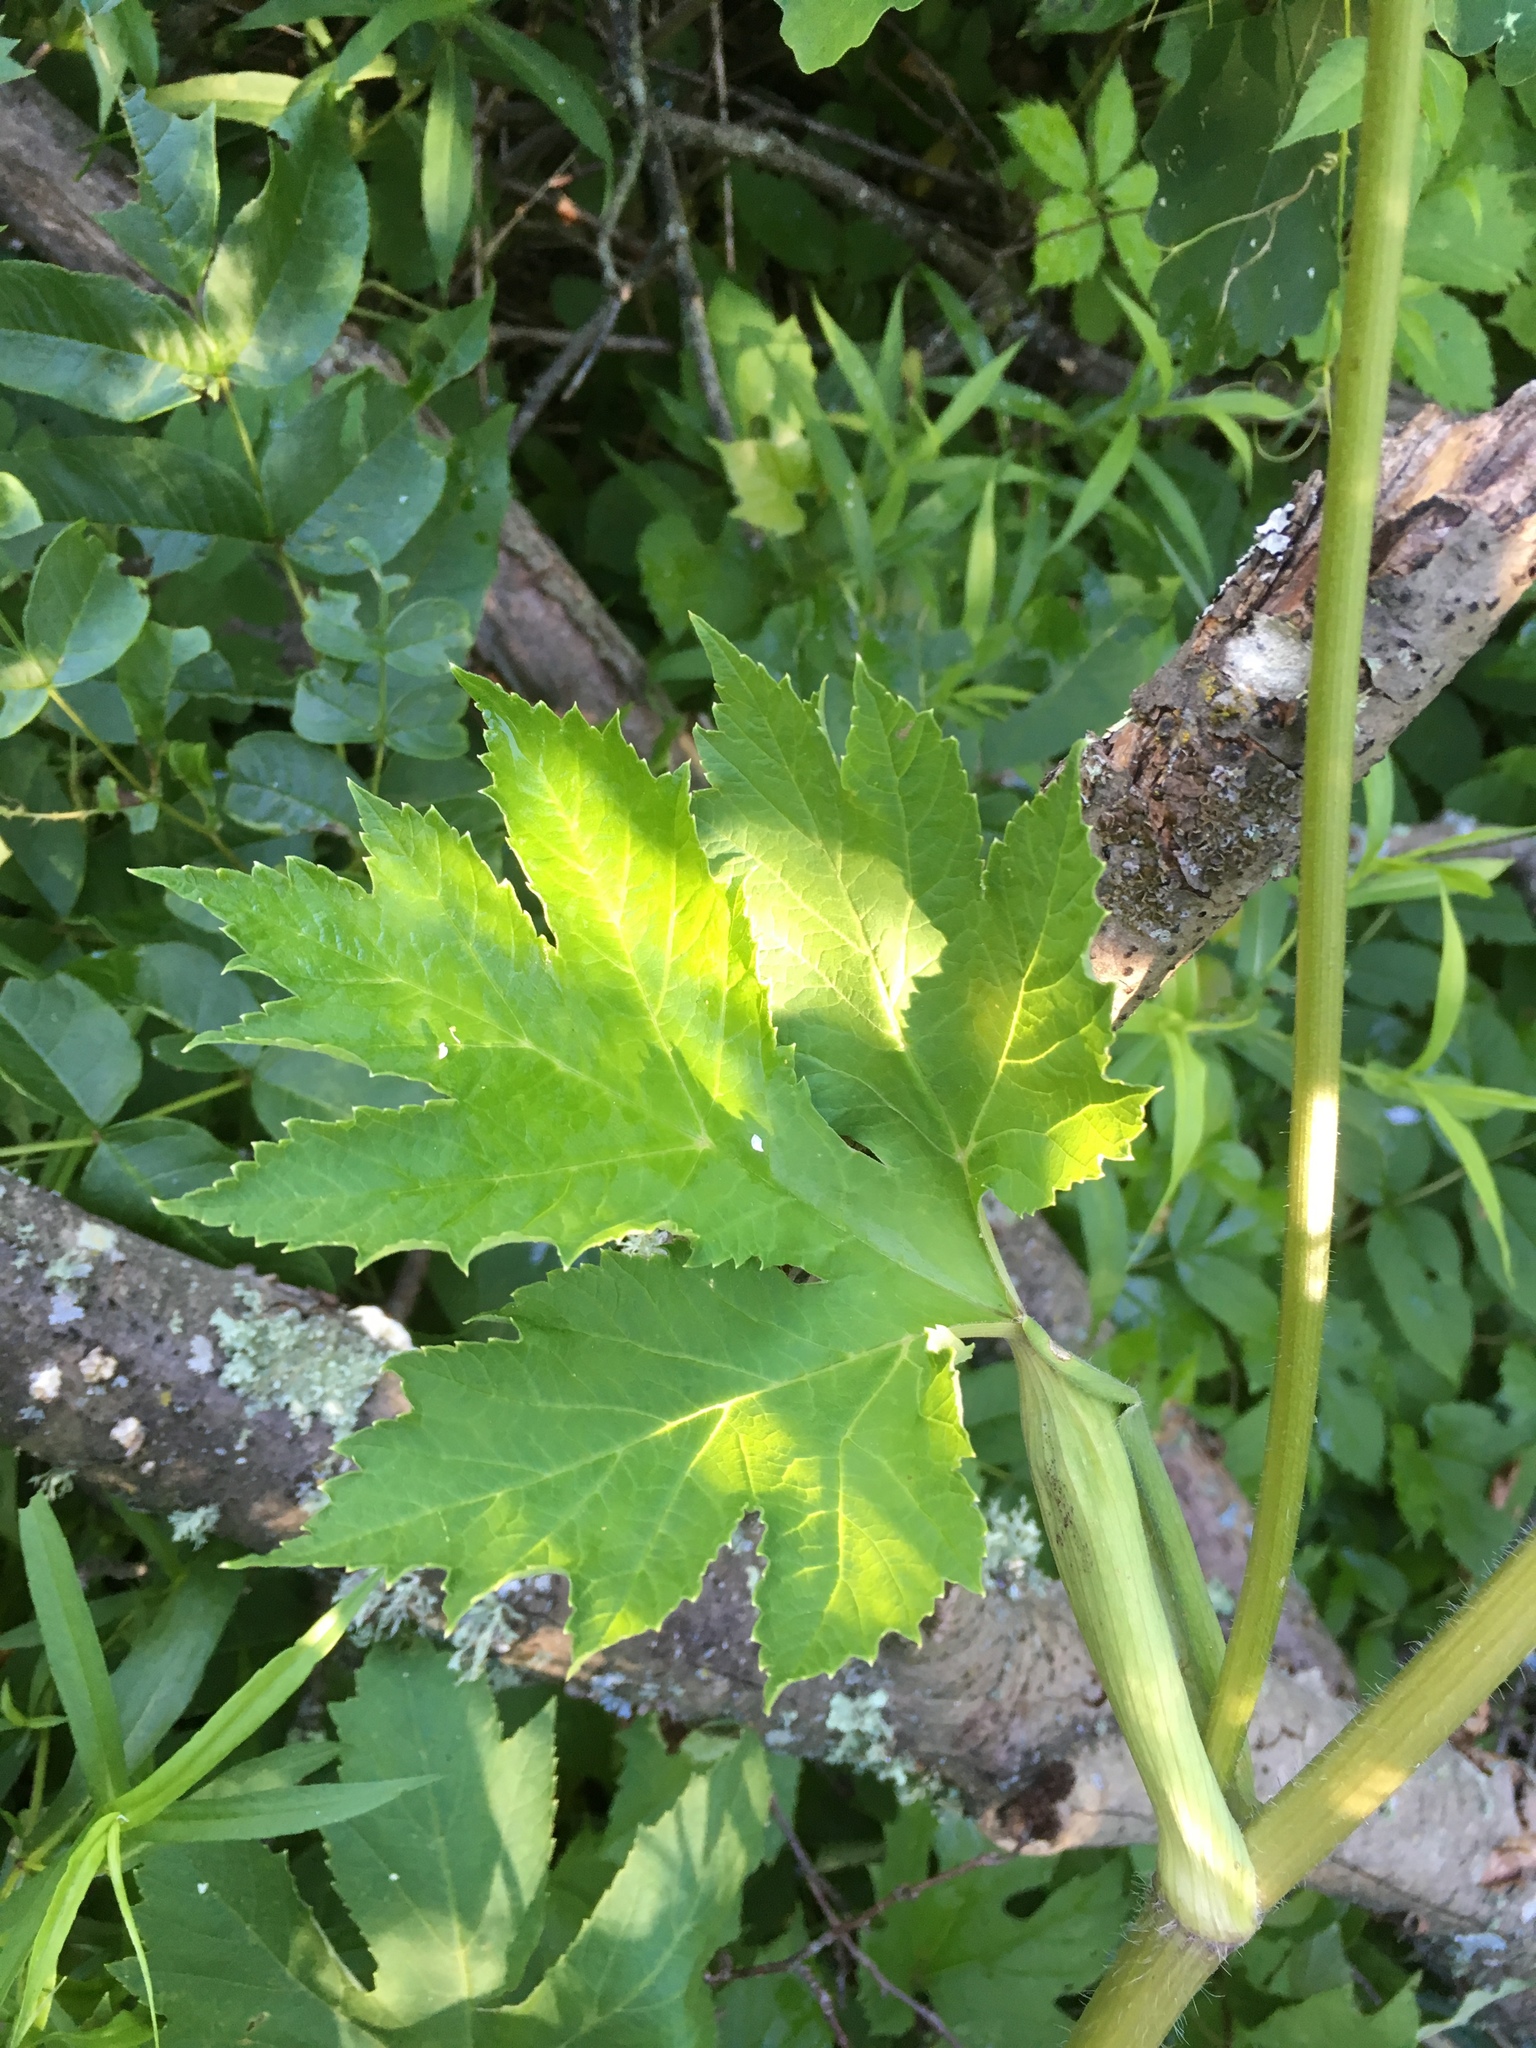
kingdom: Plantae
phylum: Tracheophyta
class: Magnoliopsida
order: Apiales
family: Apiaceae
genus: Heracleum
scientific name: Heracleum maximum
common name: American cow parsnip
